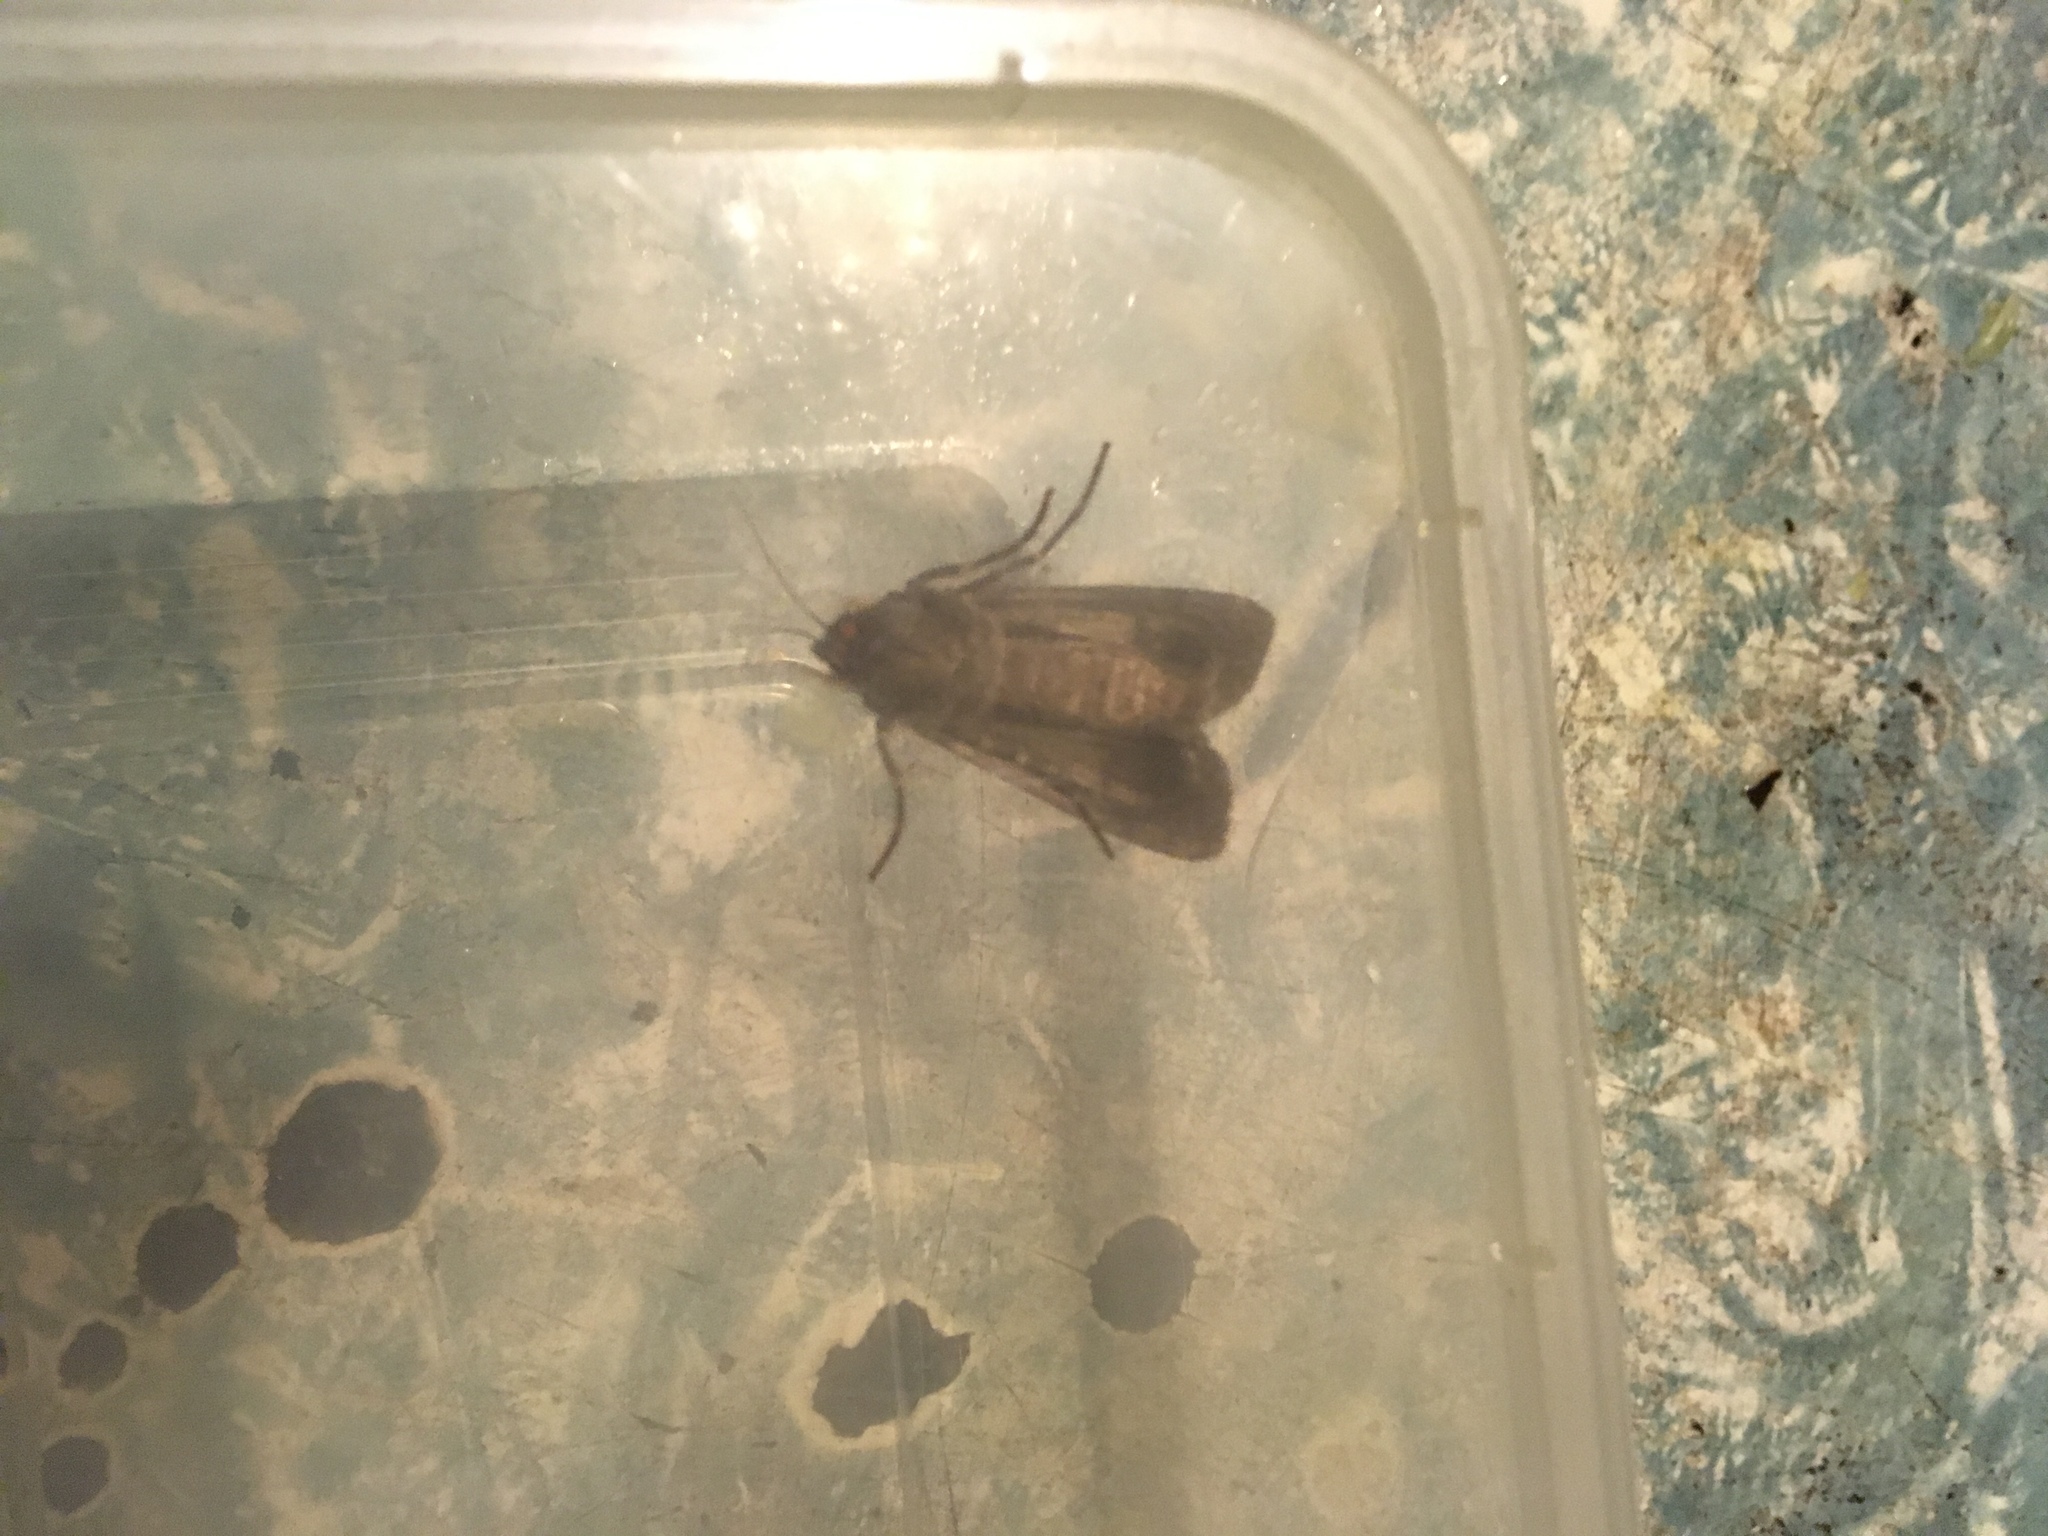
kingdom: Animalia
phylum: Arthropoda
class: Insecta
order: Lepidoptera
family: Noctuidae
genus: Agrotis
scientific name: Agrotis ipsilon
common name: Dark sword-grass
